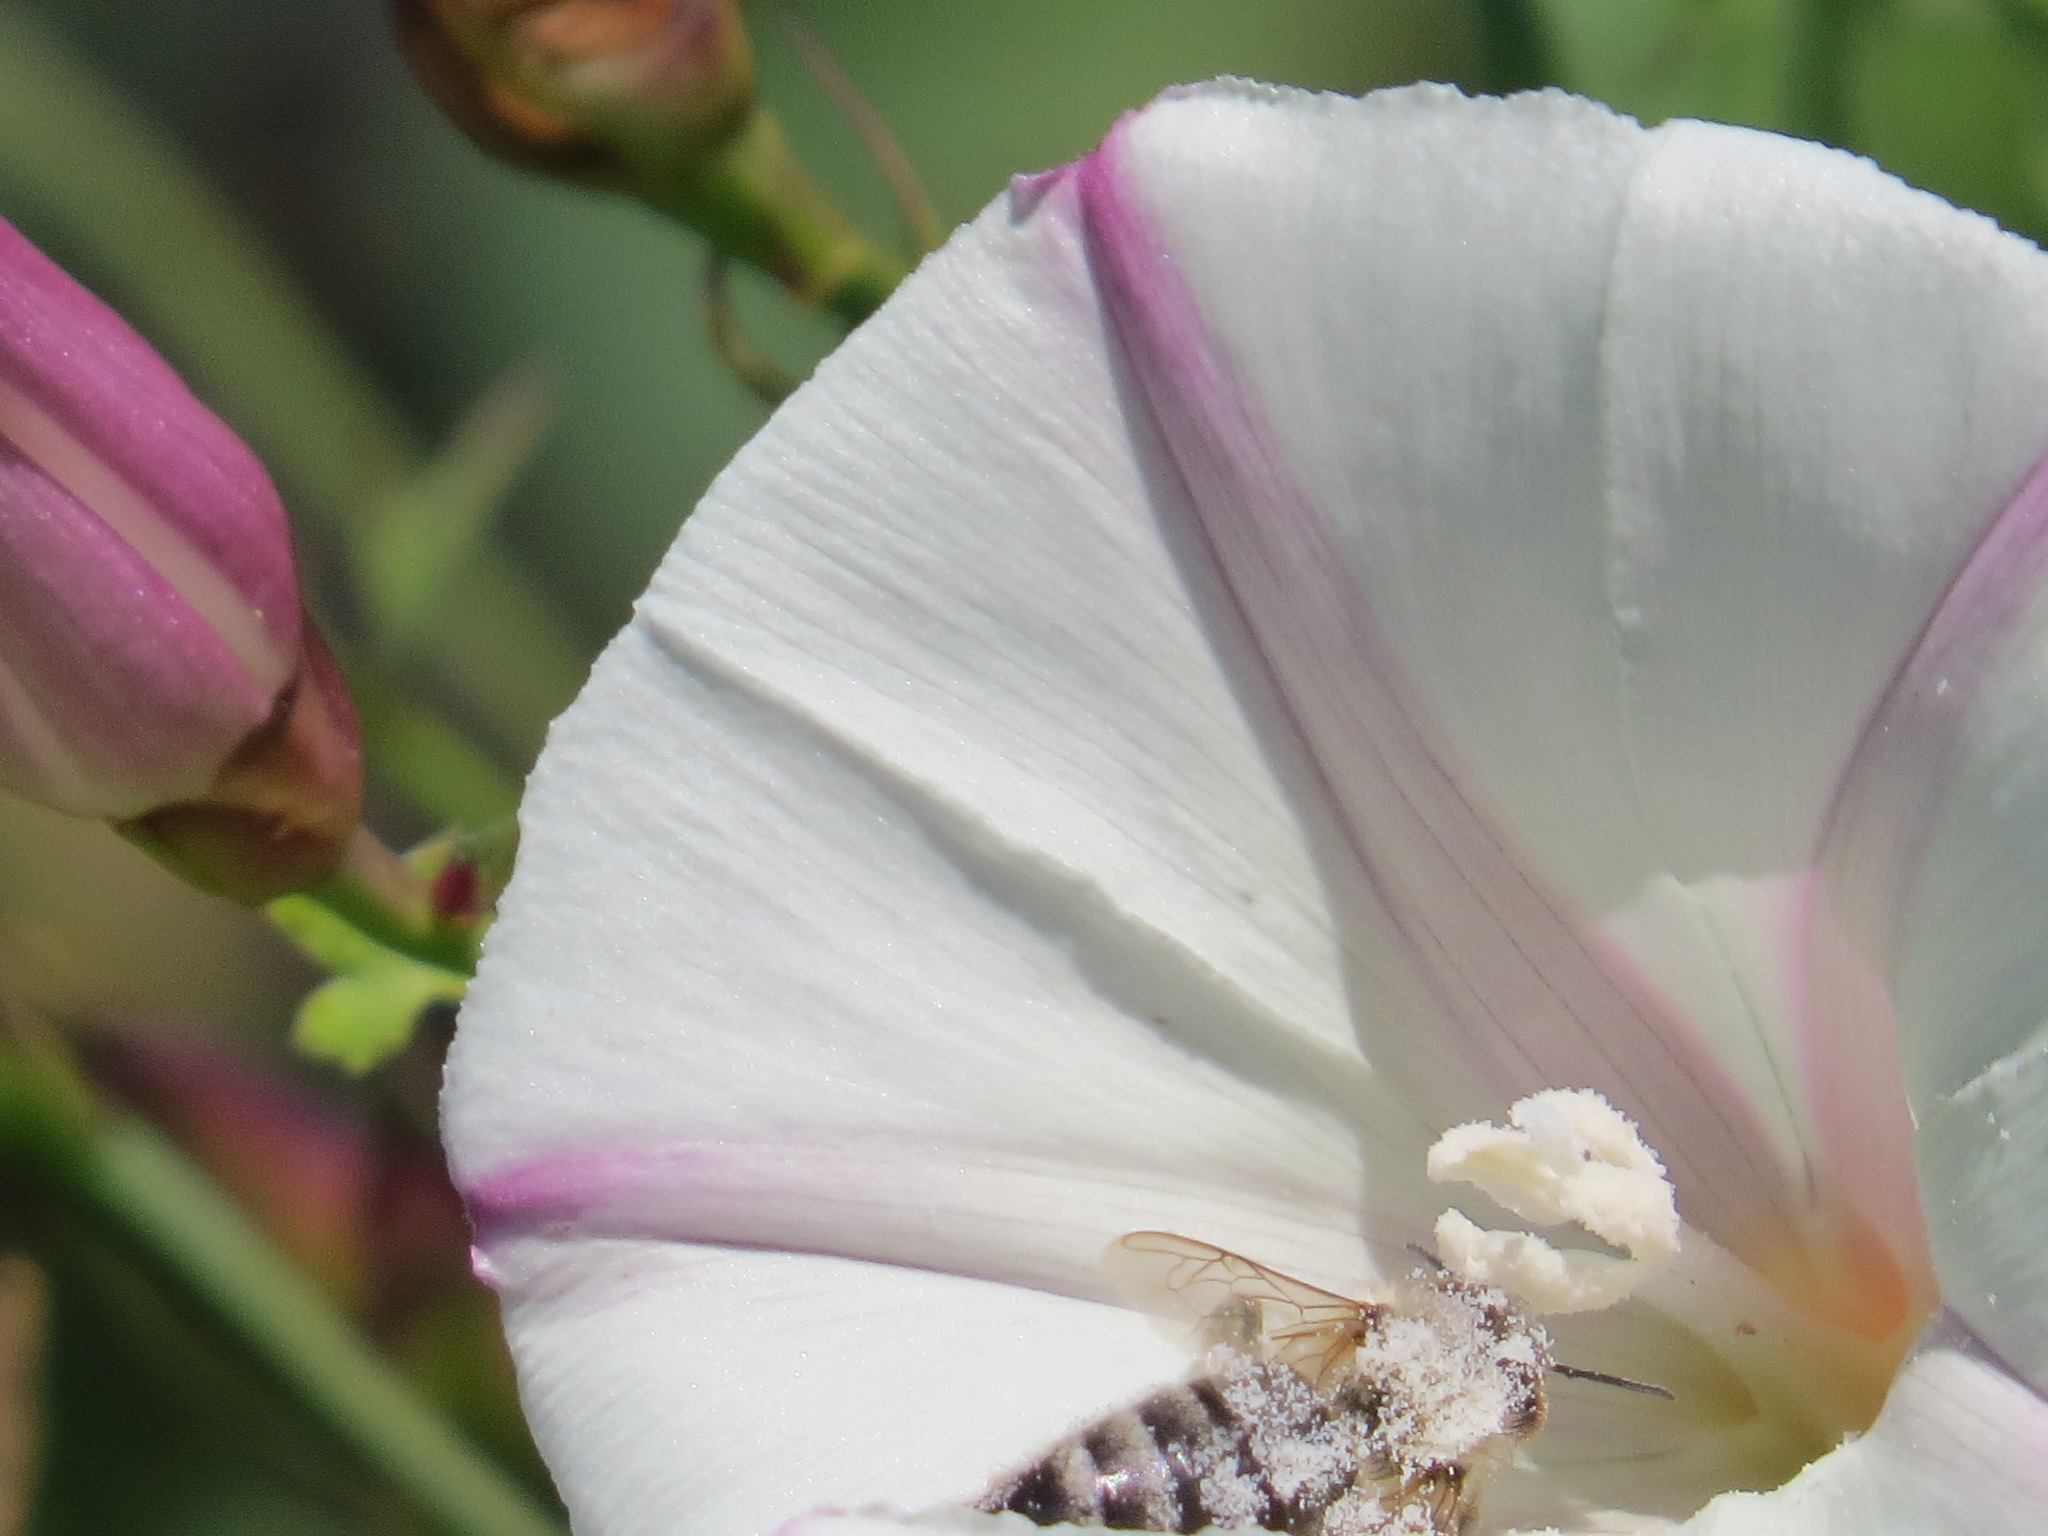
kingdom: Animalia
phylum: Arthropoda
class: Insecta
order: Hymenoptera
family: Apidae
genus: Apis
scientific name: Apis mellifera
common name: Honey bee
